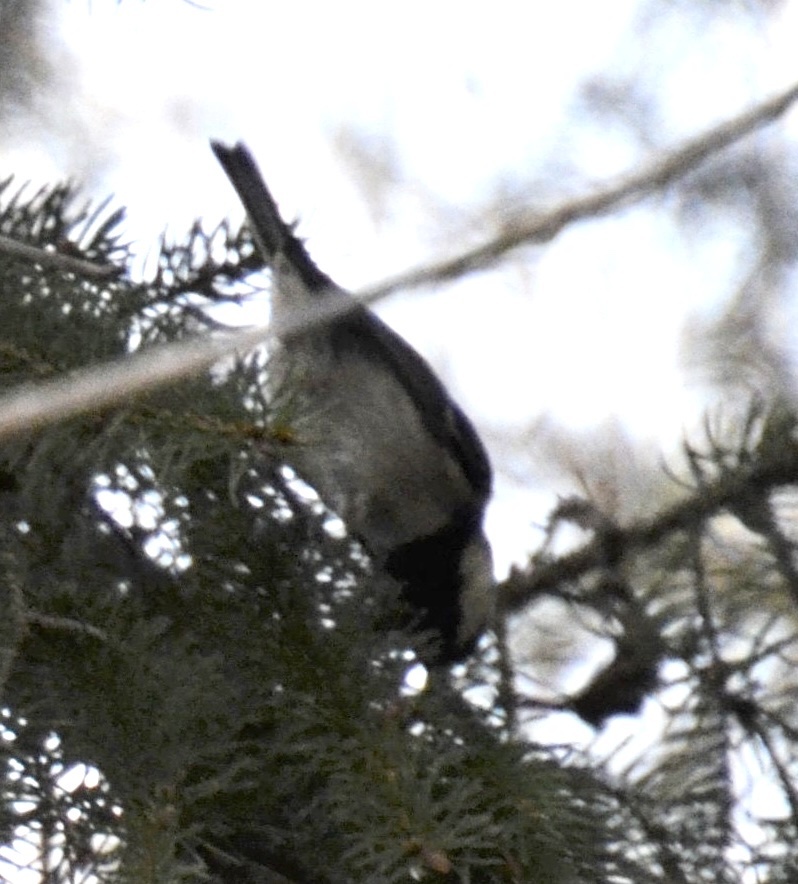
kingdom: Animalia
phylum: Chordata
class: Aves
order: Passeriformes
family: Paridae
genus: Periparus
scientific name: Periparus ater
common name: Coal tit
